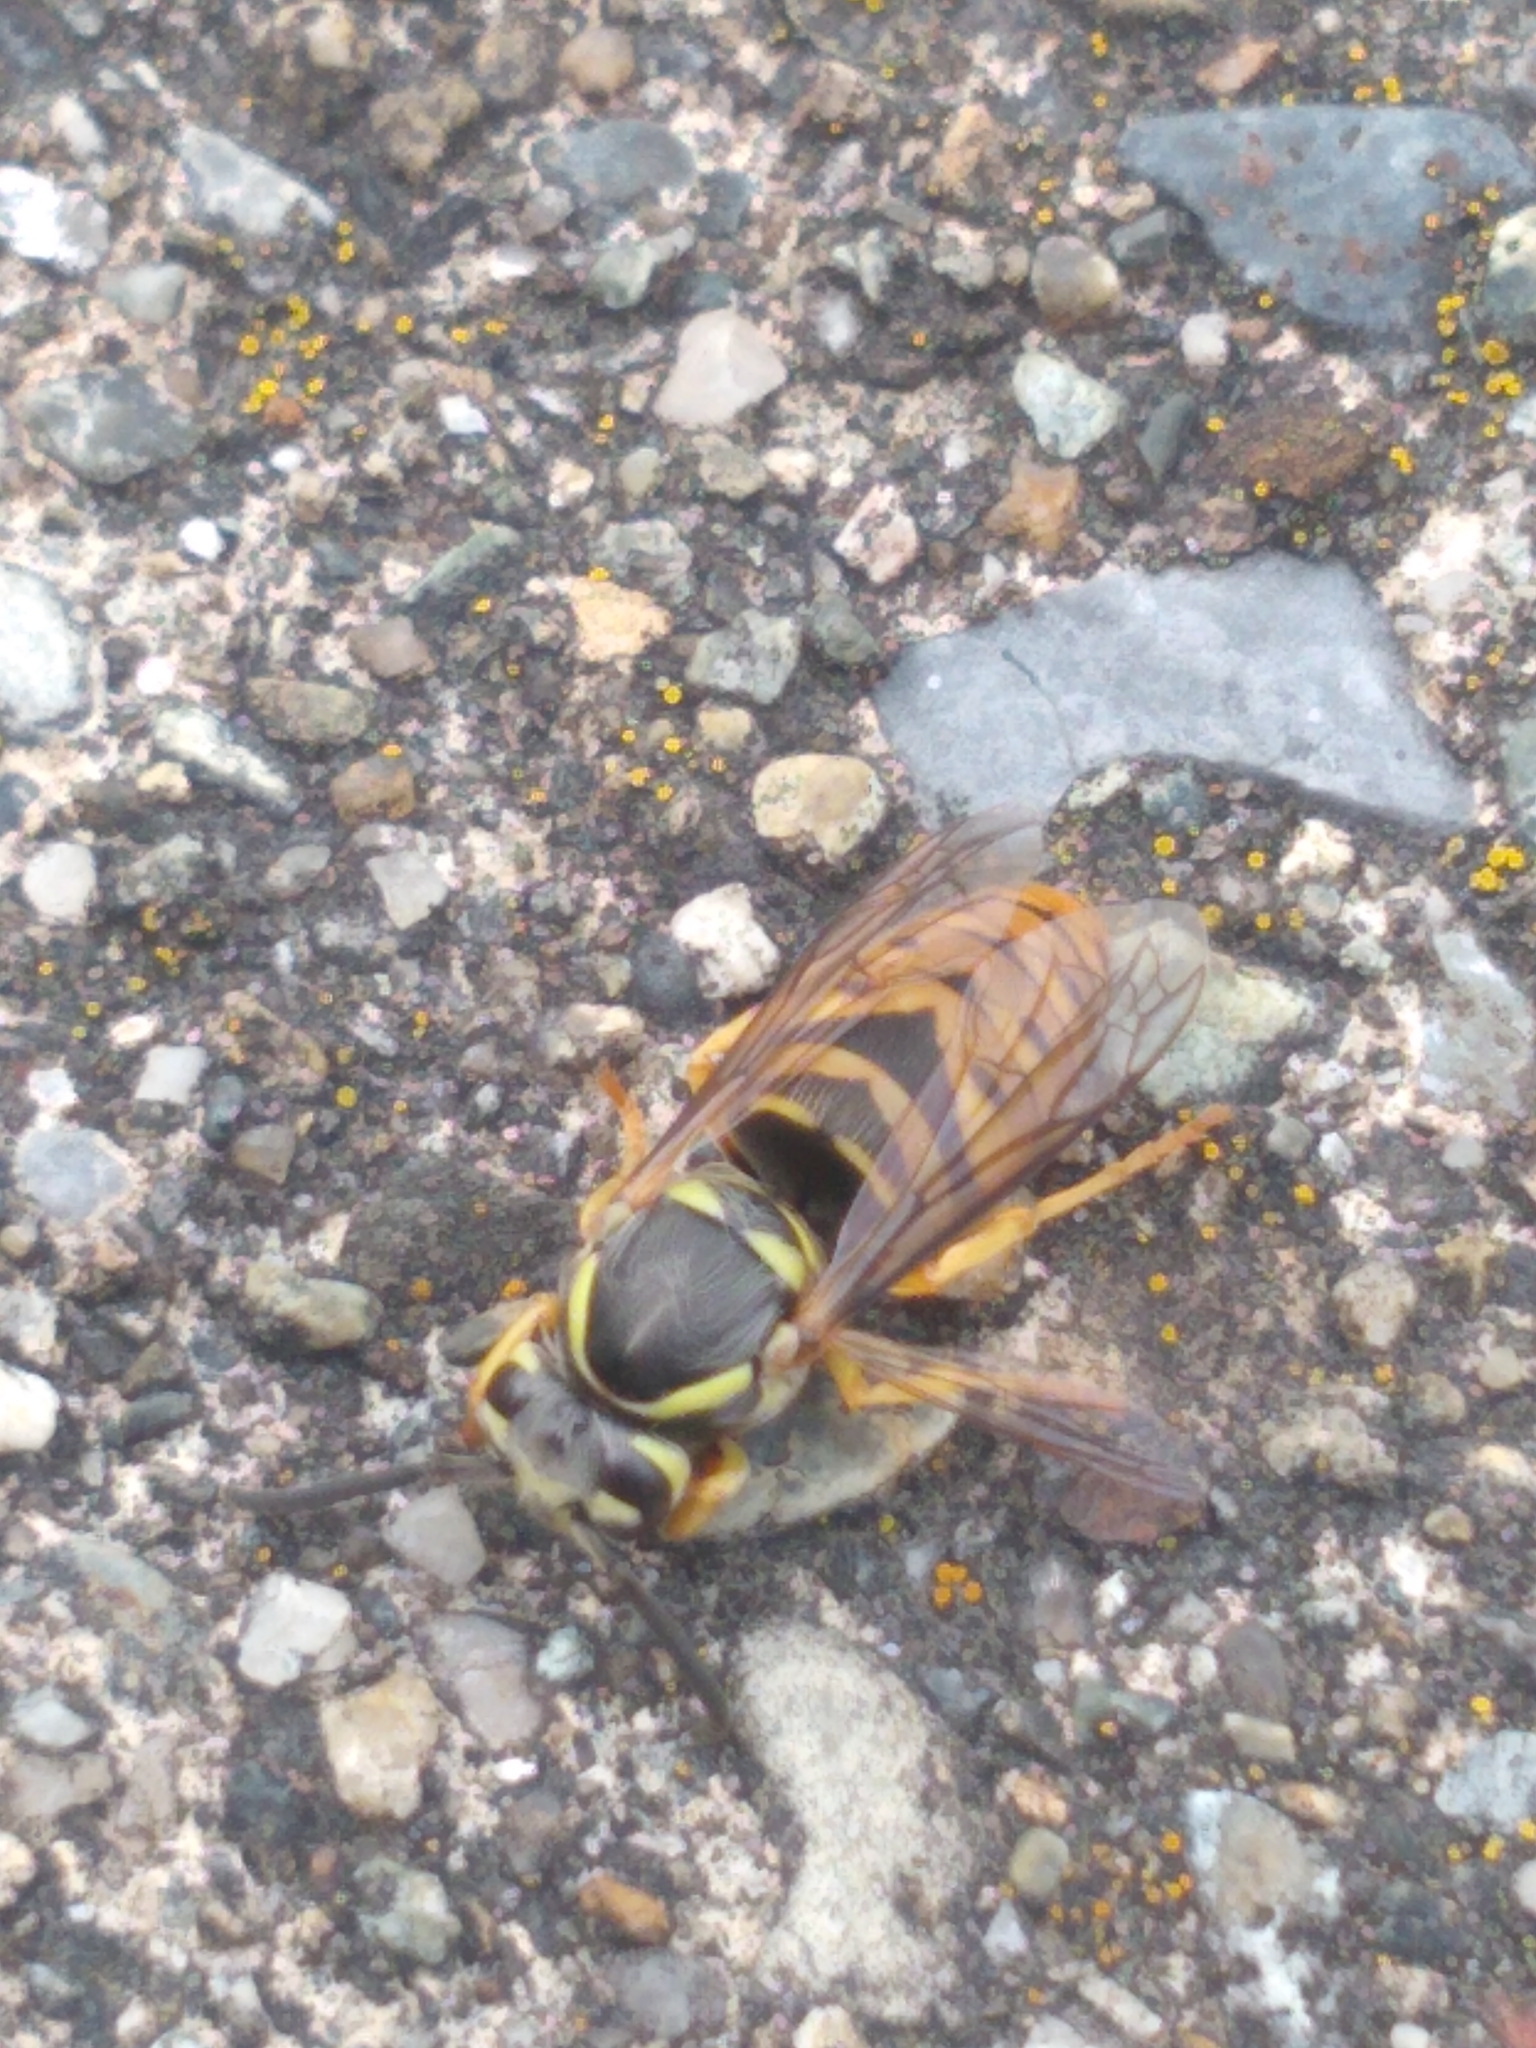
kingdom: Animalia
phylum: Arthropoda
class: Insecta
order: Hymenoptera
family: Vespidae
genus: Vespula
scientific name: Vespula maculifrons
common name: Eastern yellowjacket
